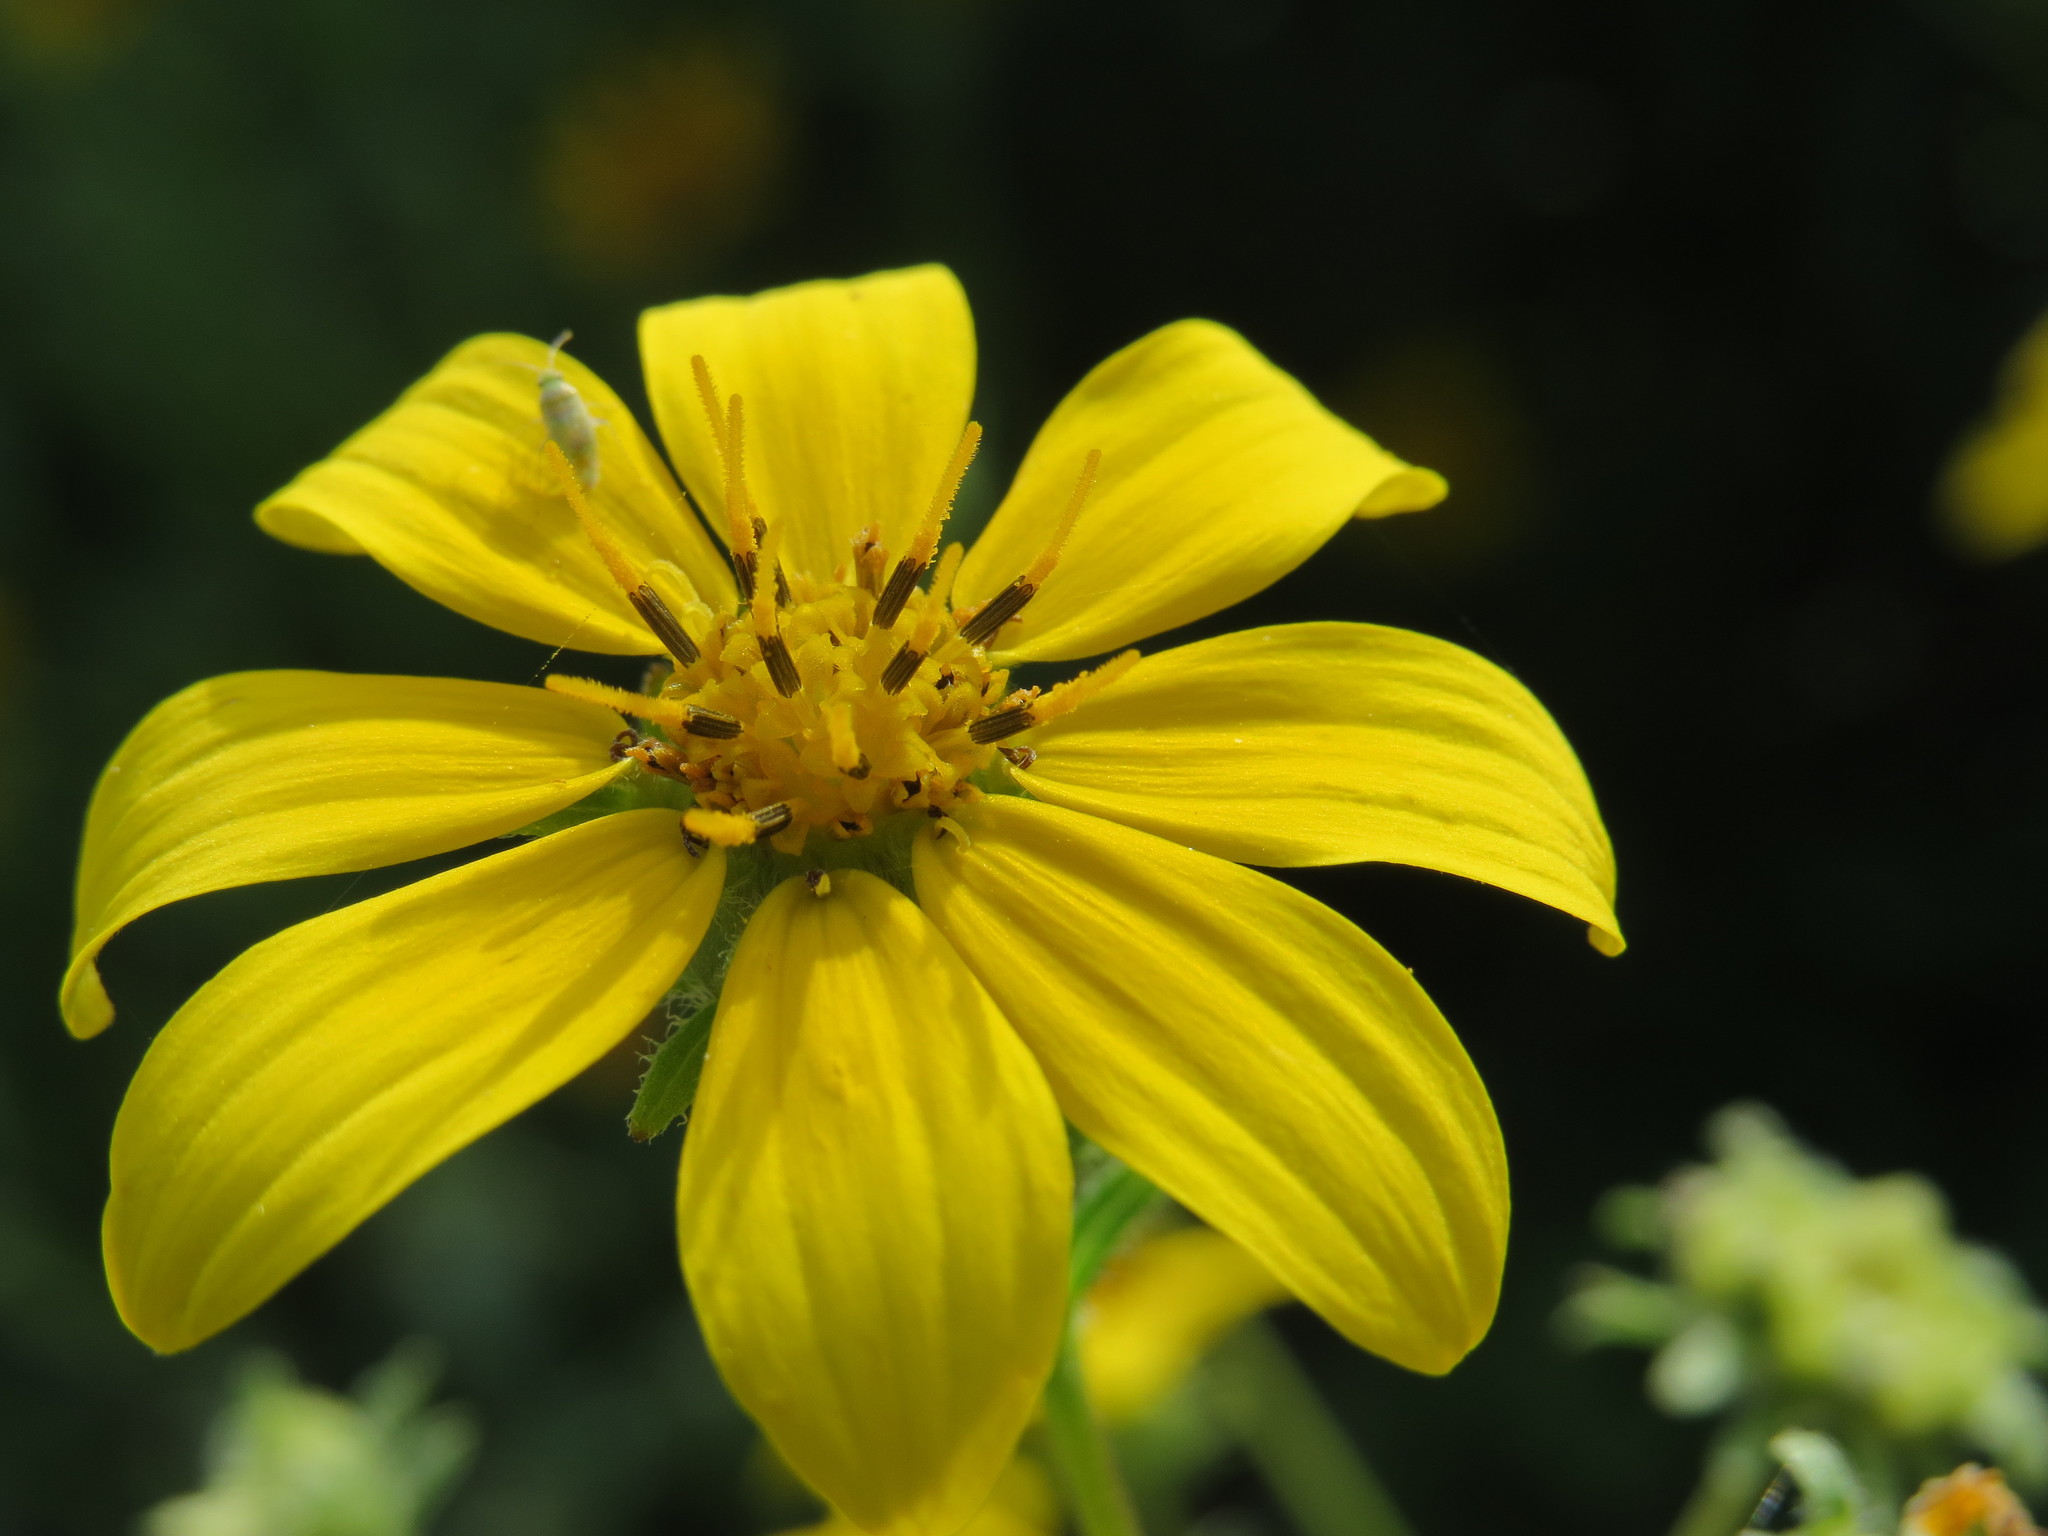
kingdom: Plantae
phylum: Tracheophyta
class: Magnoliopsida
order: Asterales
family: Asteraceae
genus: Engelmannia
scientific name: Engelmannia peristenia
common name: Engelmann's daisy
